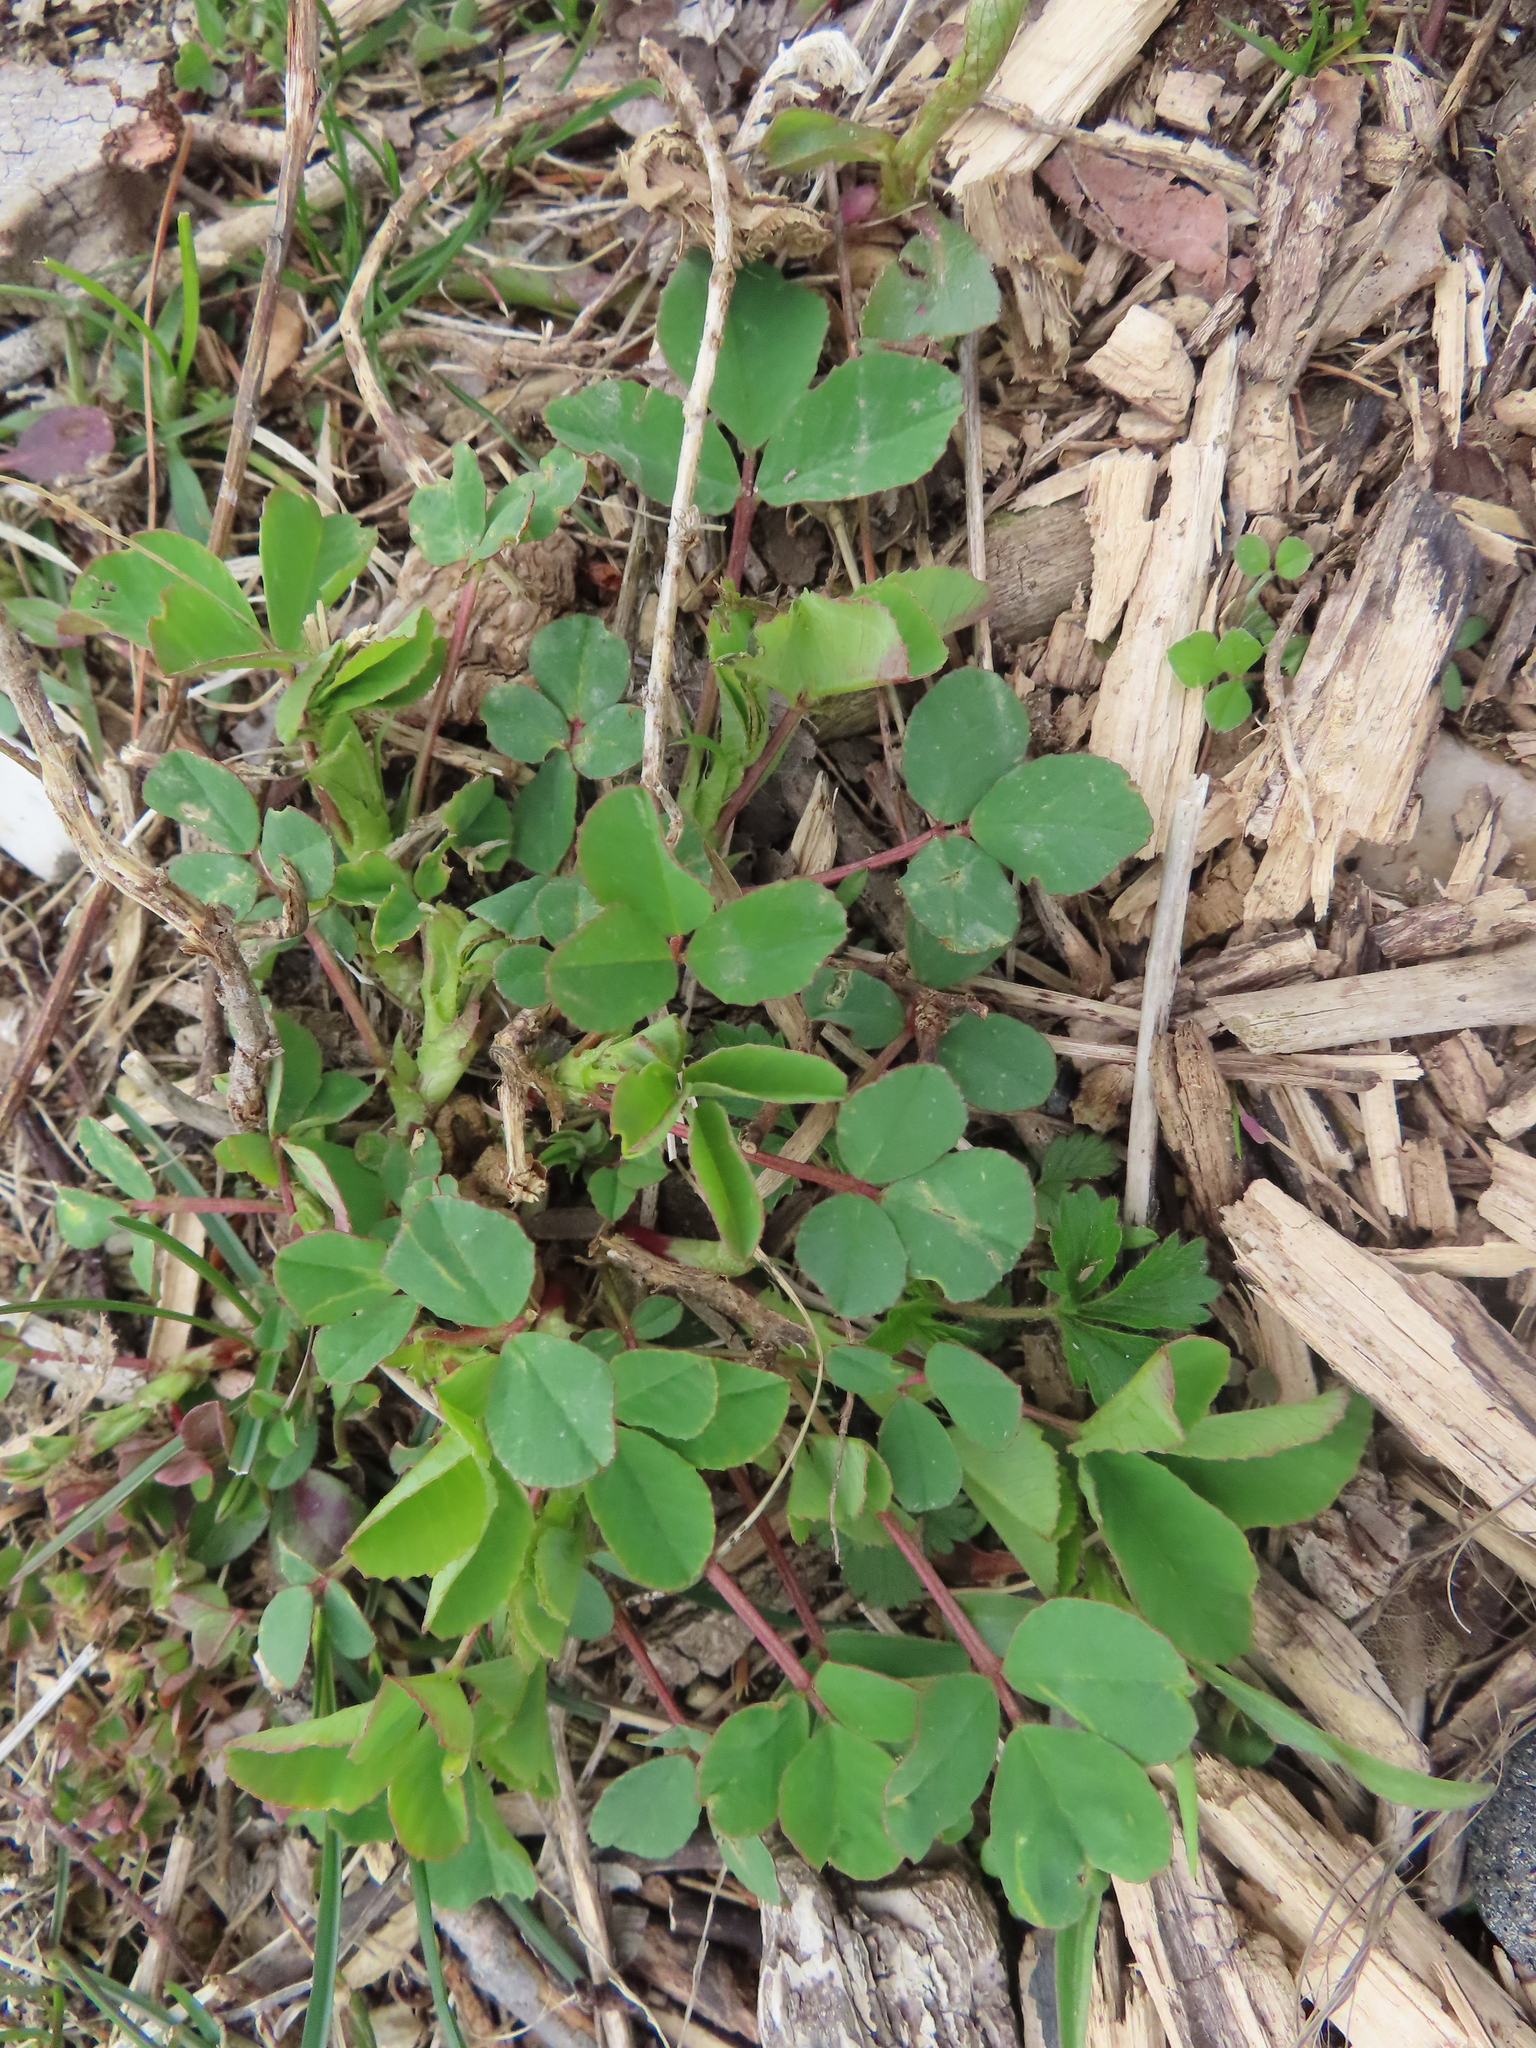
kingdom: Plantae
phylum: Tracheophyta
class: Magnoliopsida
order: Fabales
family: Fabaceae
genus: Trifolium
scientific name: Trifolium repens
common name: White clover
